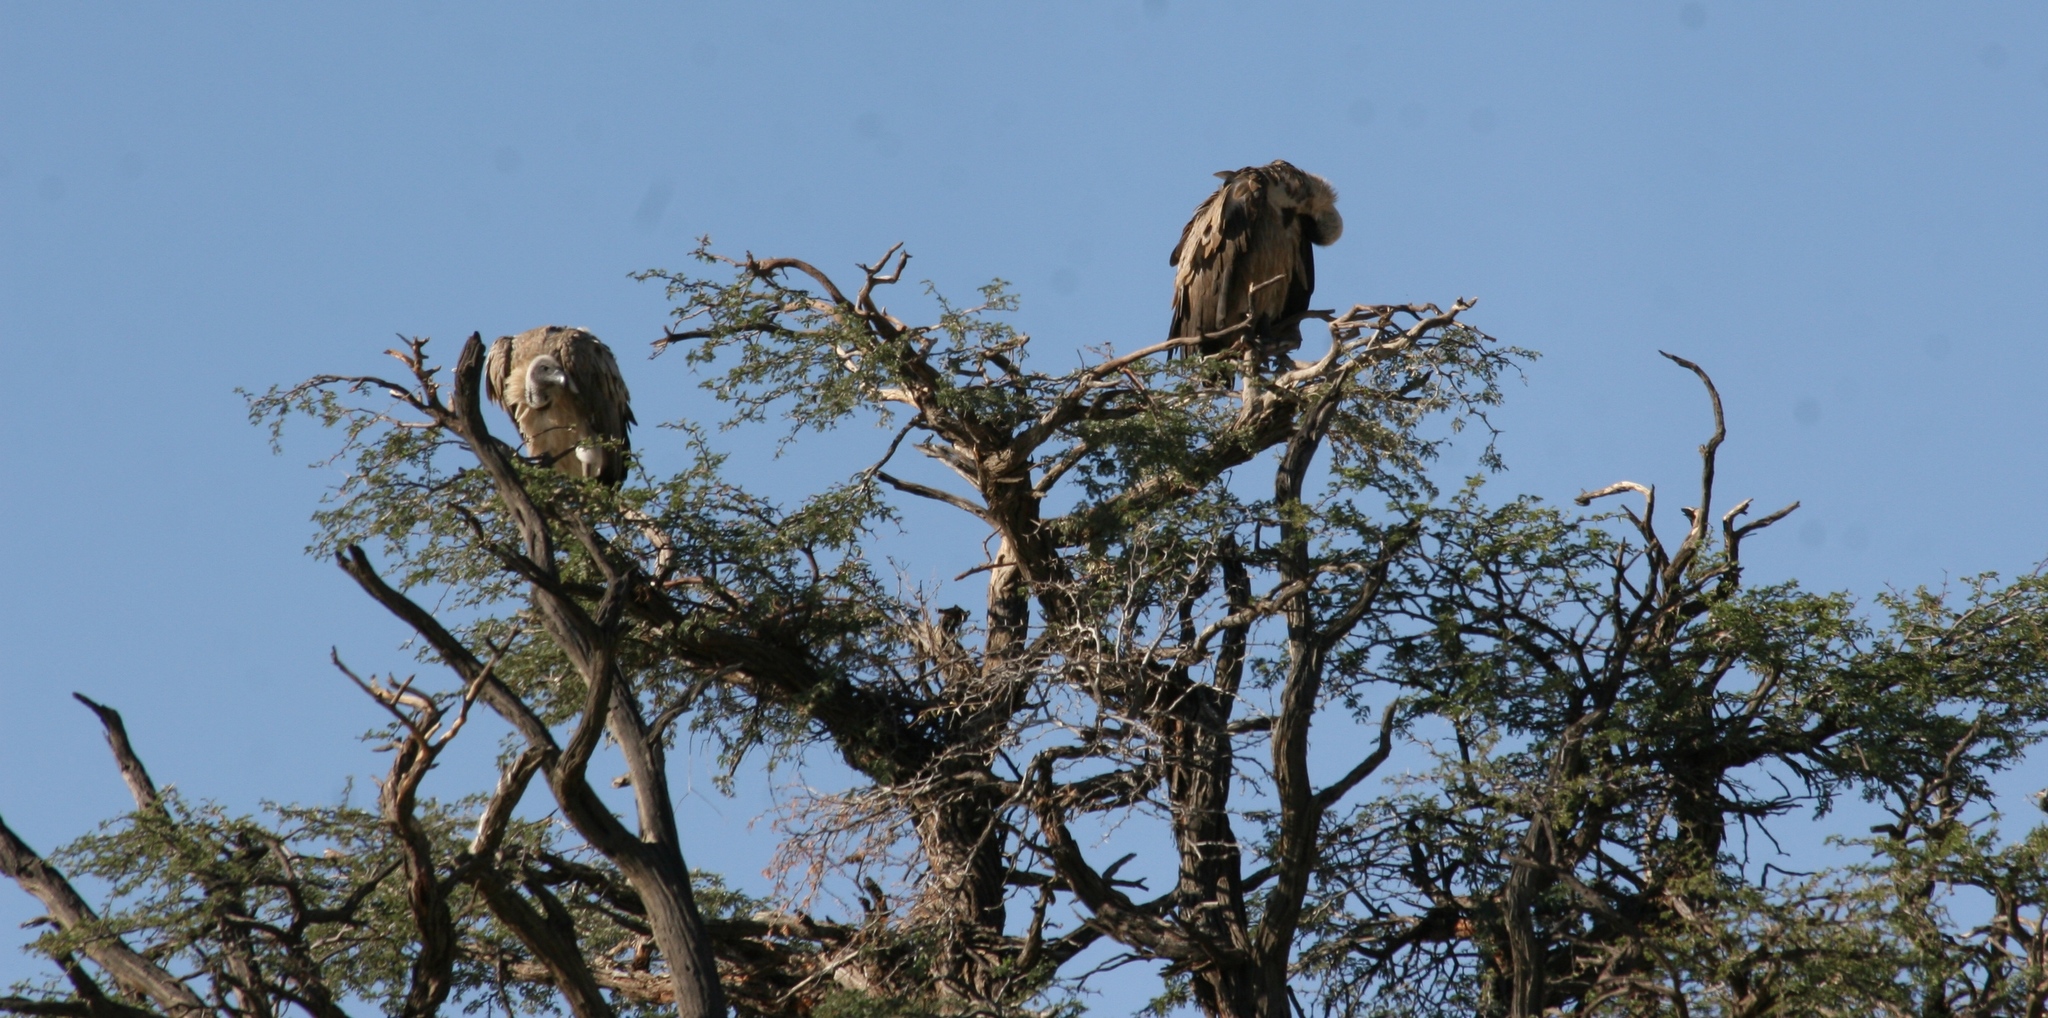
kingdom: Animalia
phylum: Chordata
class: Aves
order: Accipitriformes
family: Accipitridae
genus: Gyps
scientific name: Gyps africanus
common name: White-backed vulture
